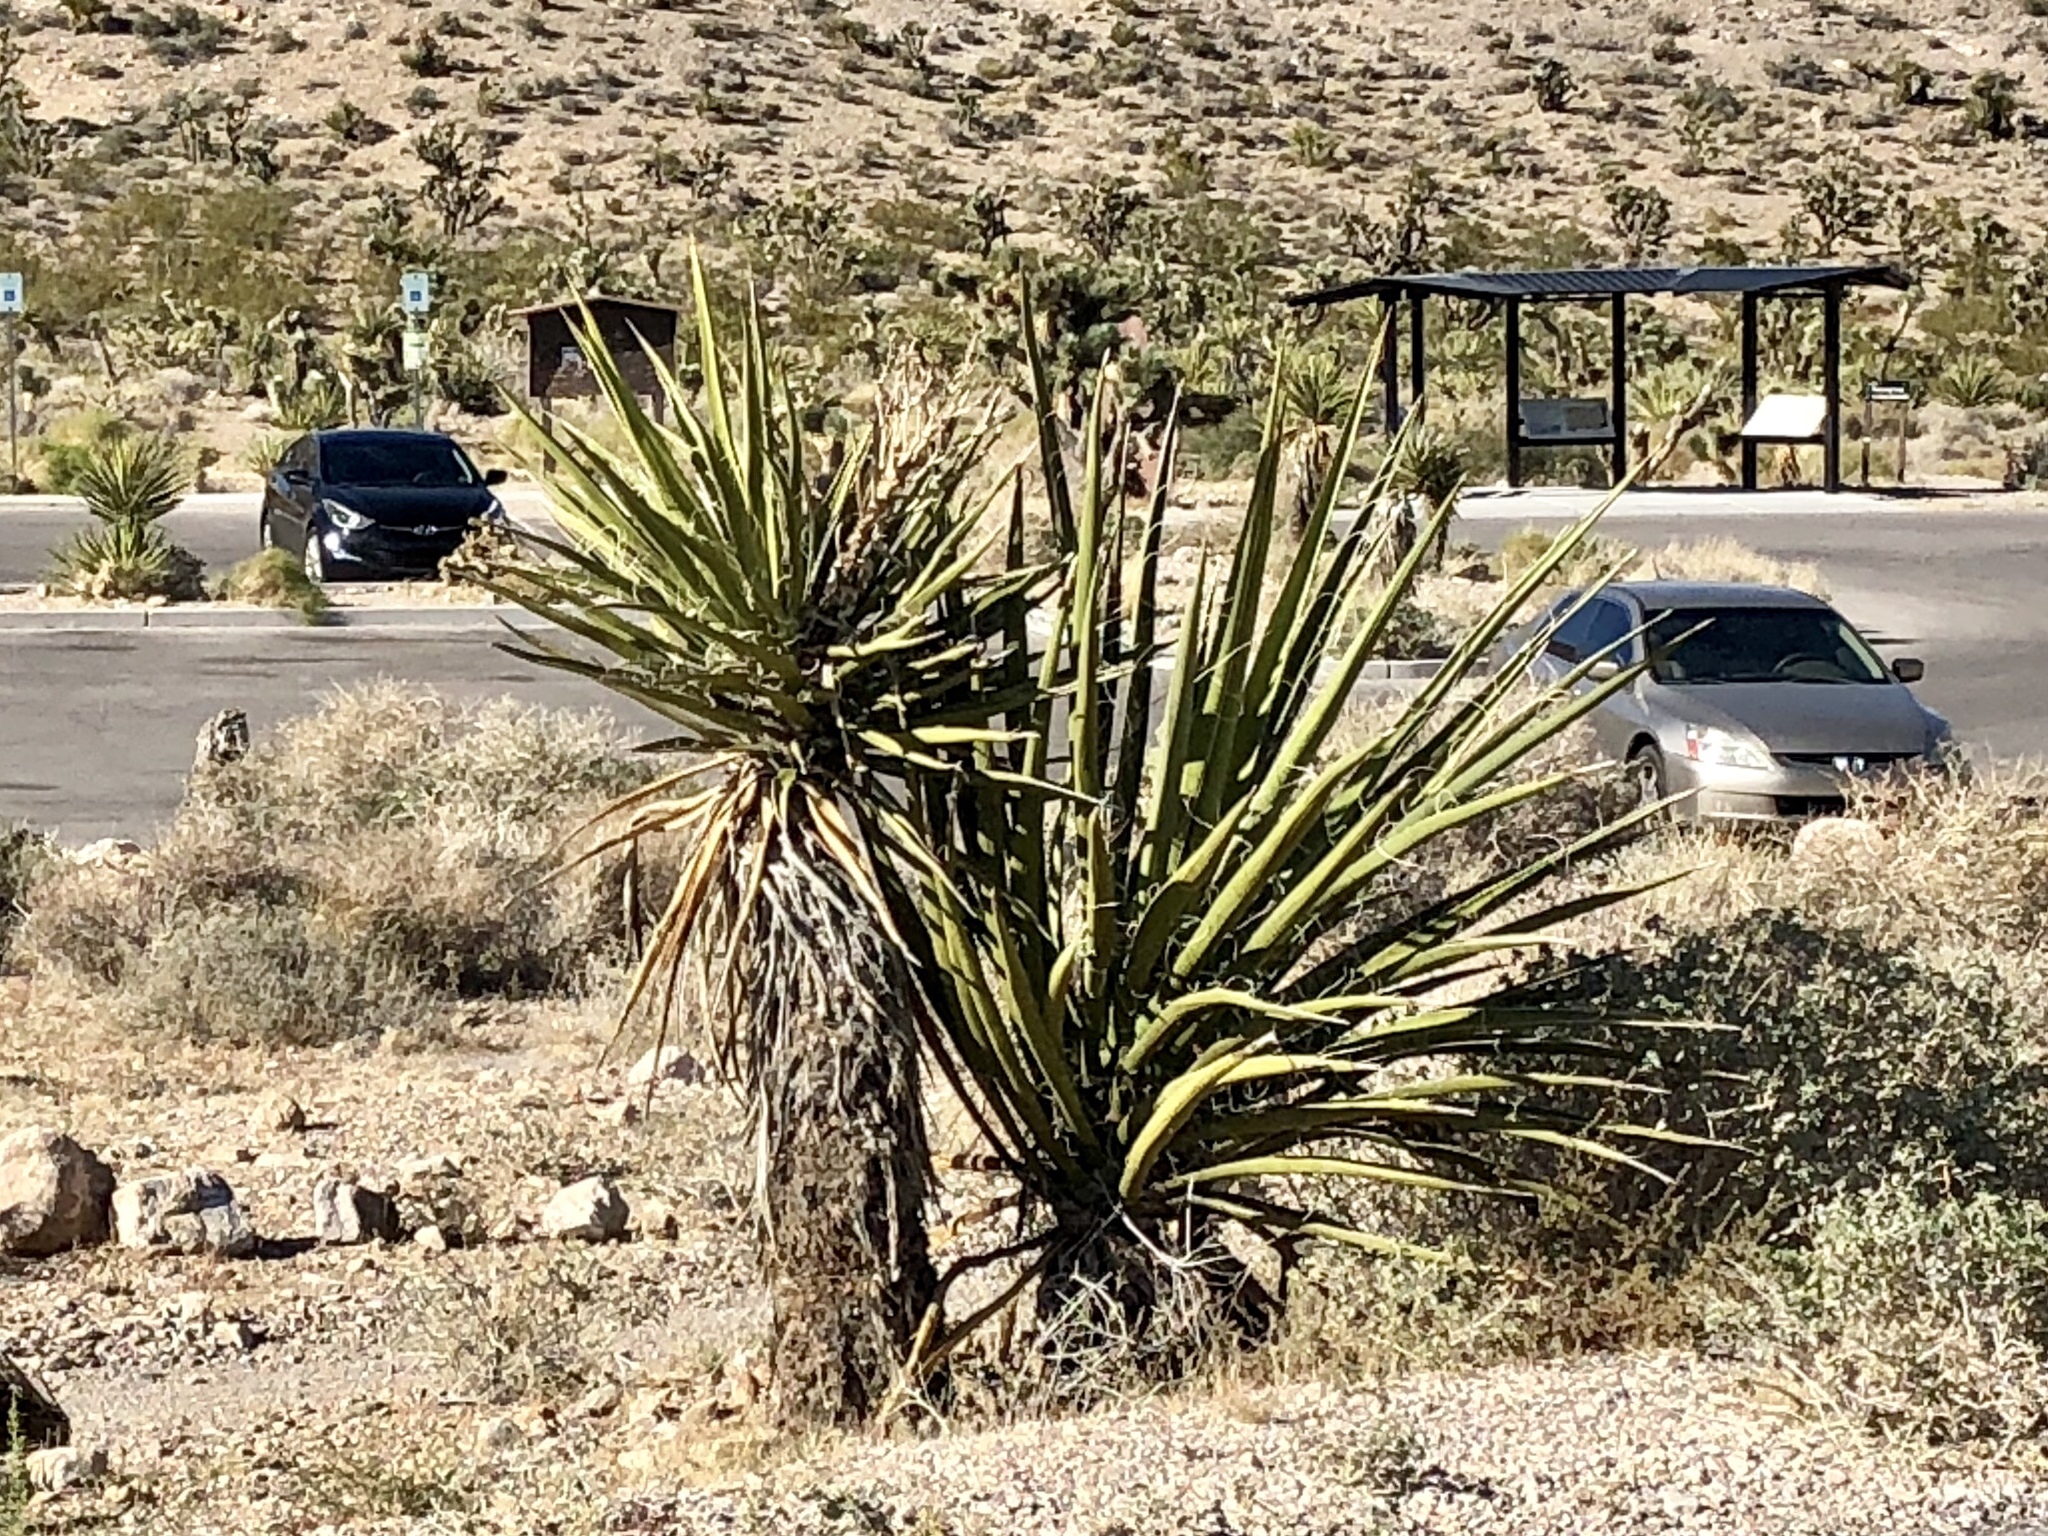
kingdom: Plantae
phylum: Tracheophyta
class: Liliopsida
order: Asparagales
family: Asparagaceae
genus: Yucca
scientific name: Yucca schidigera
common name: Mojave yucca
